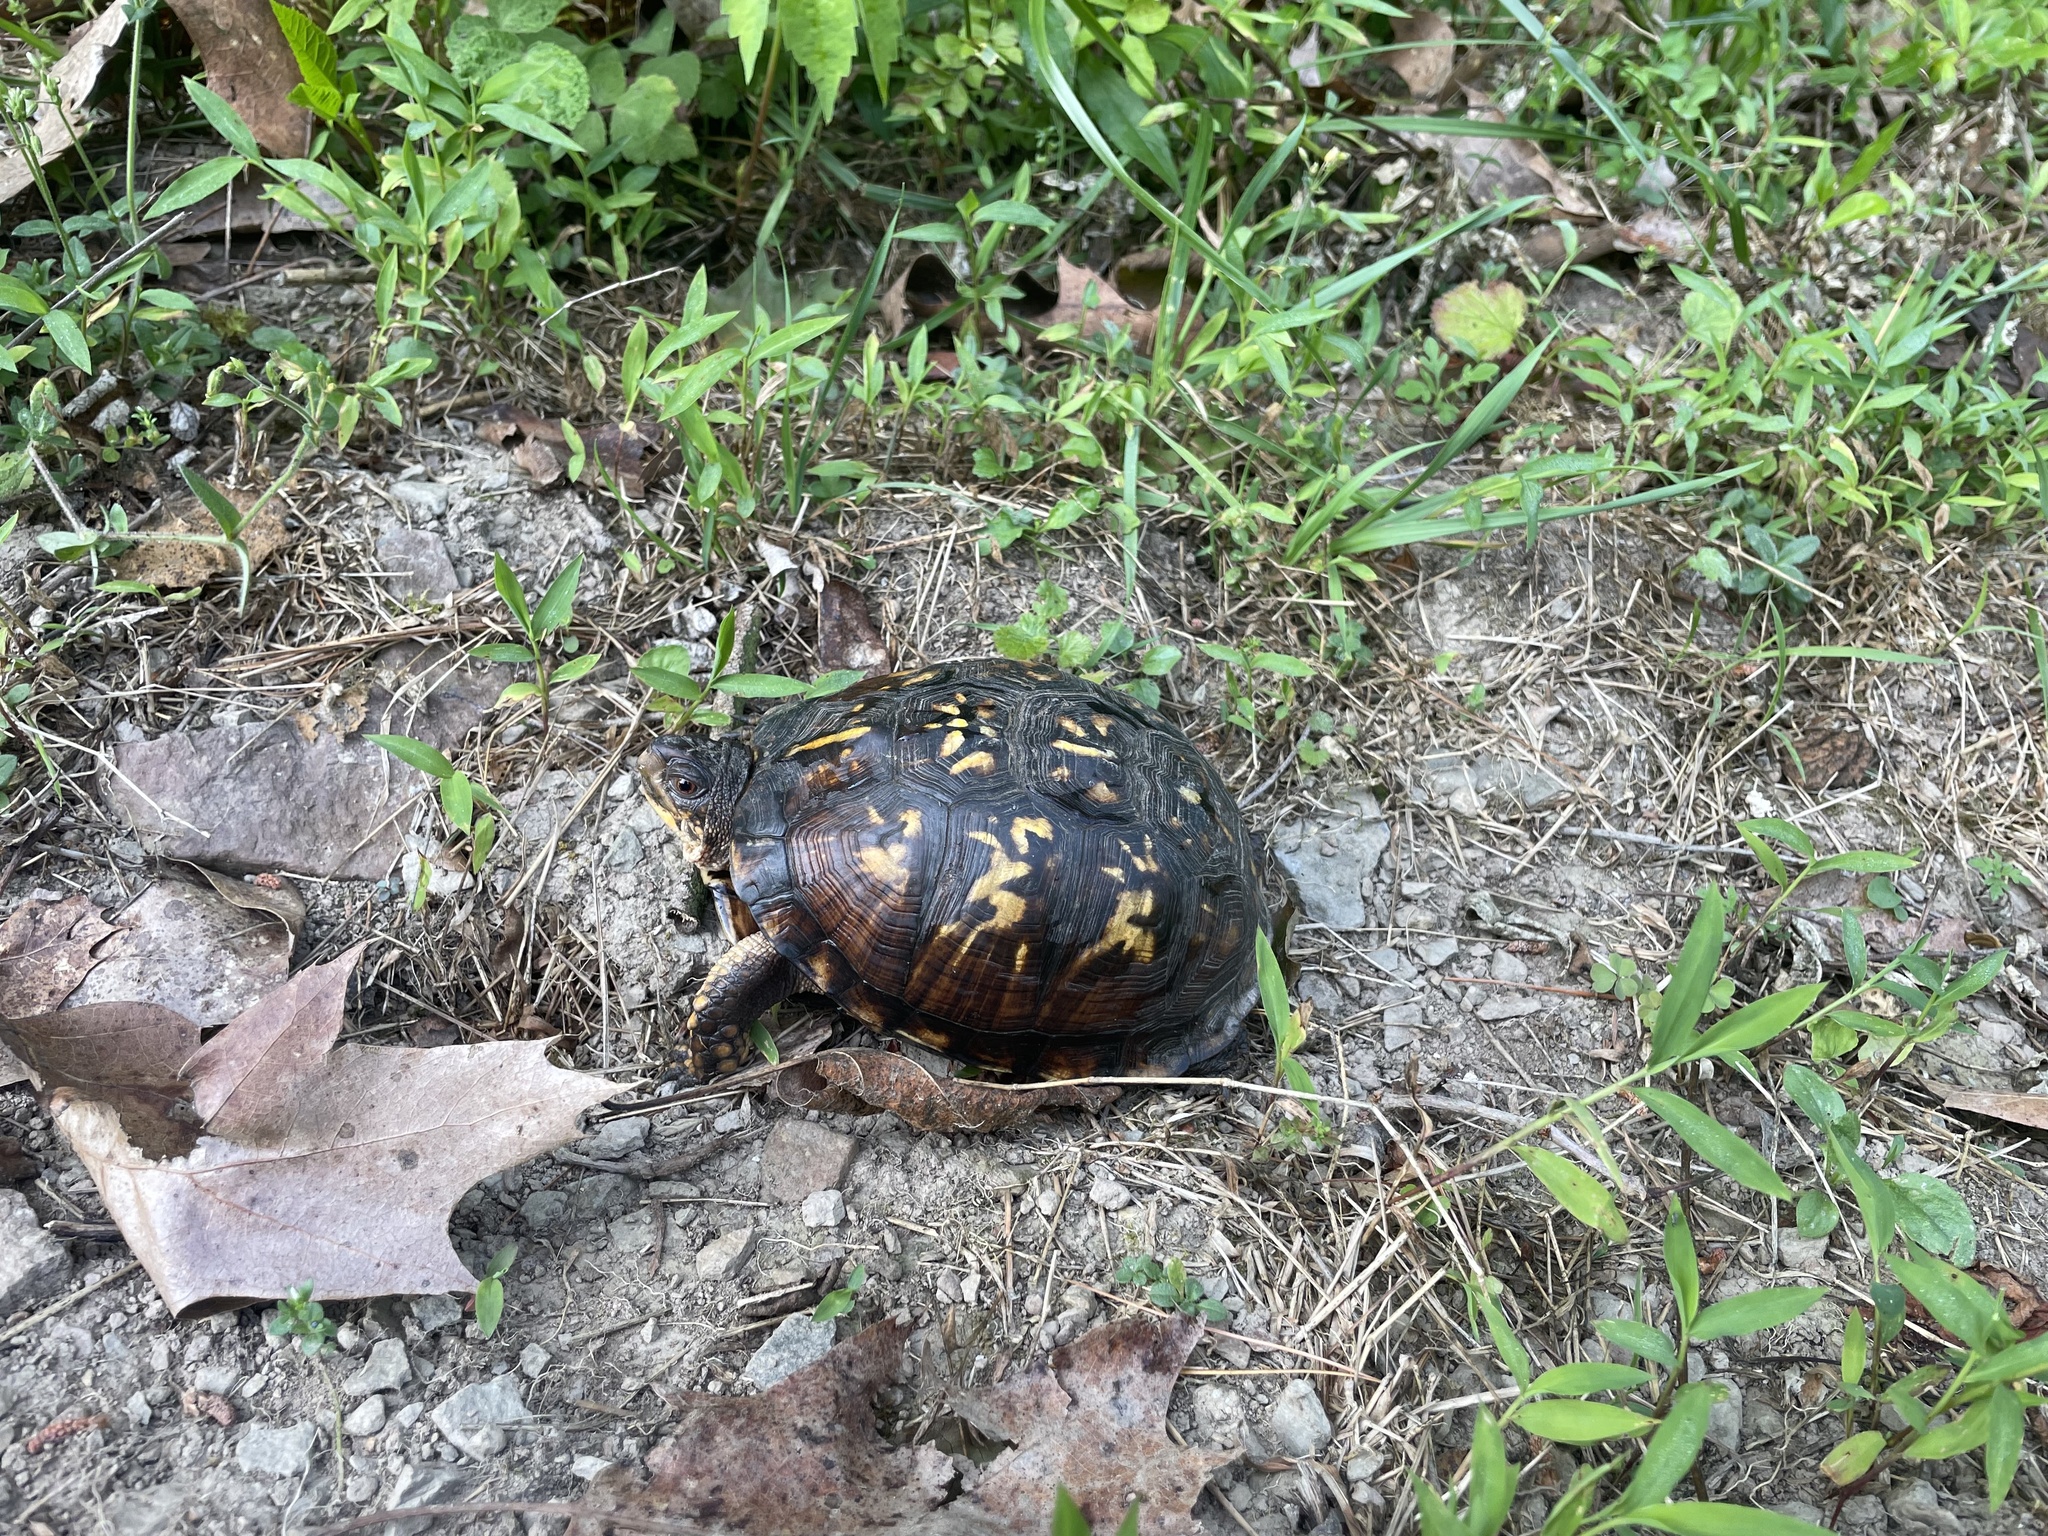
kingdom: Animalia
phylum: Chordata
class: Testudines
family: Emydidae
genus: Terrapene
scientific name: Terrapene carolina
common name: Common box turtle
